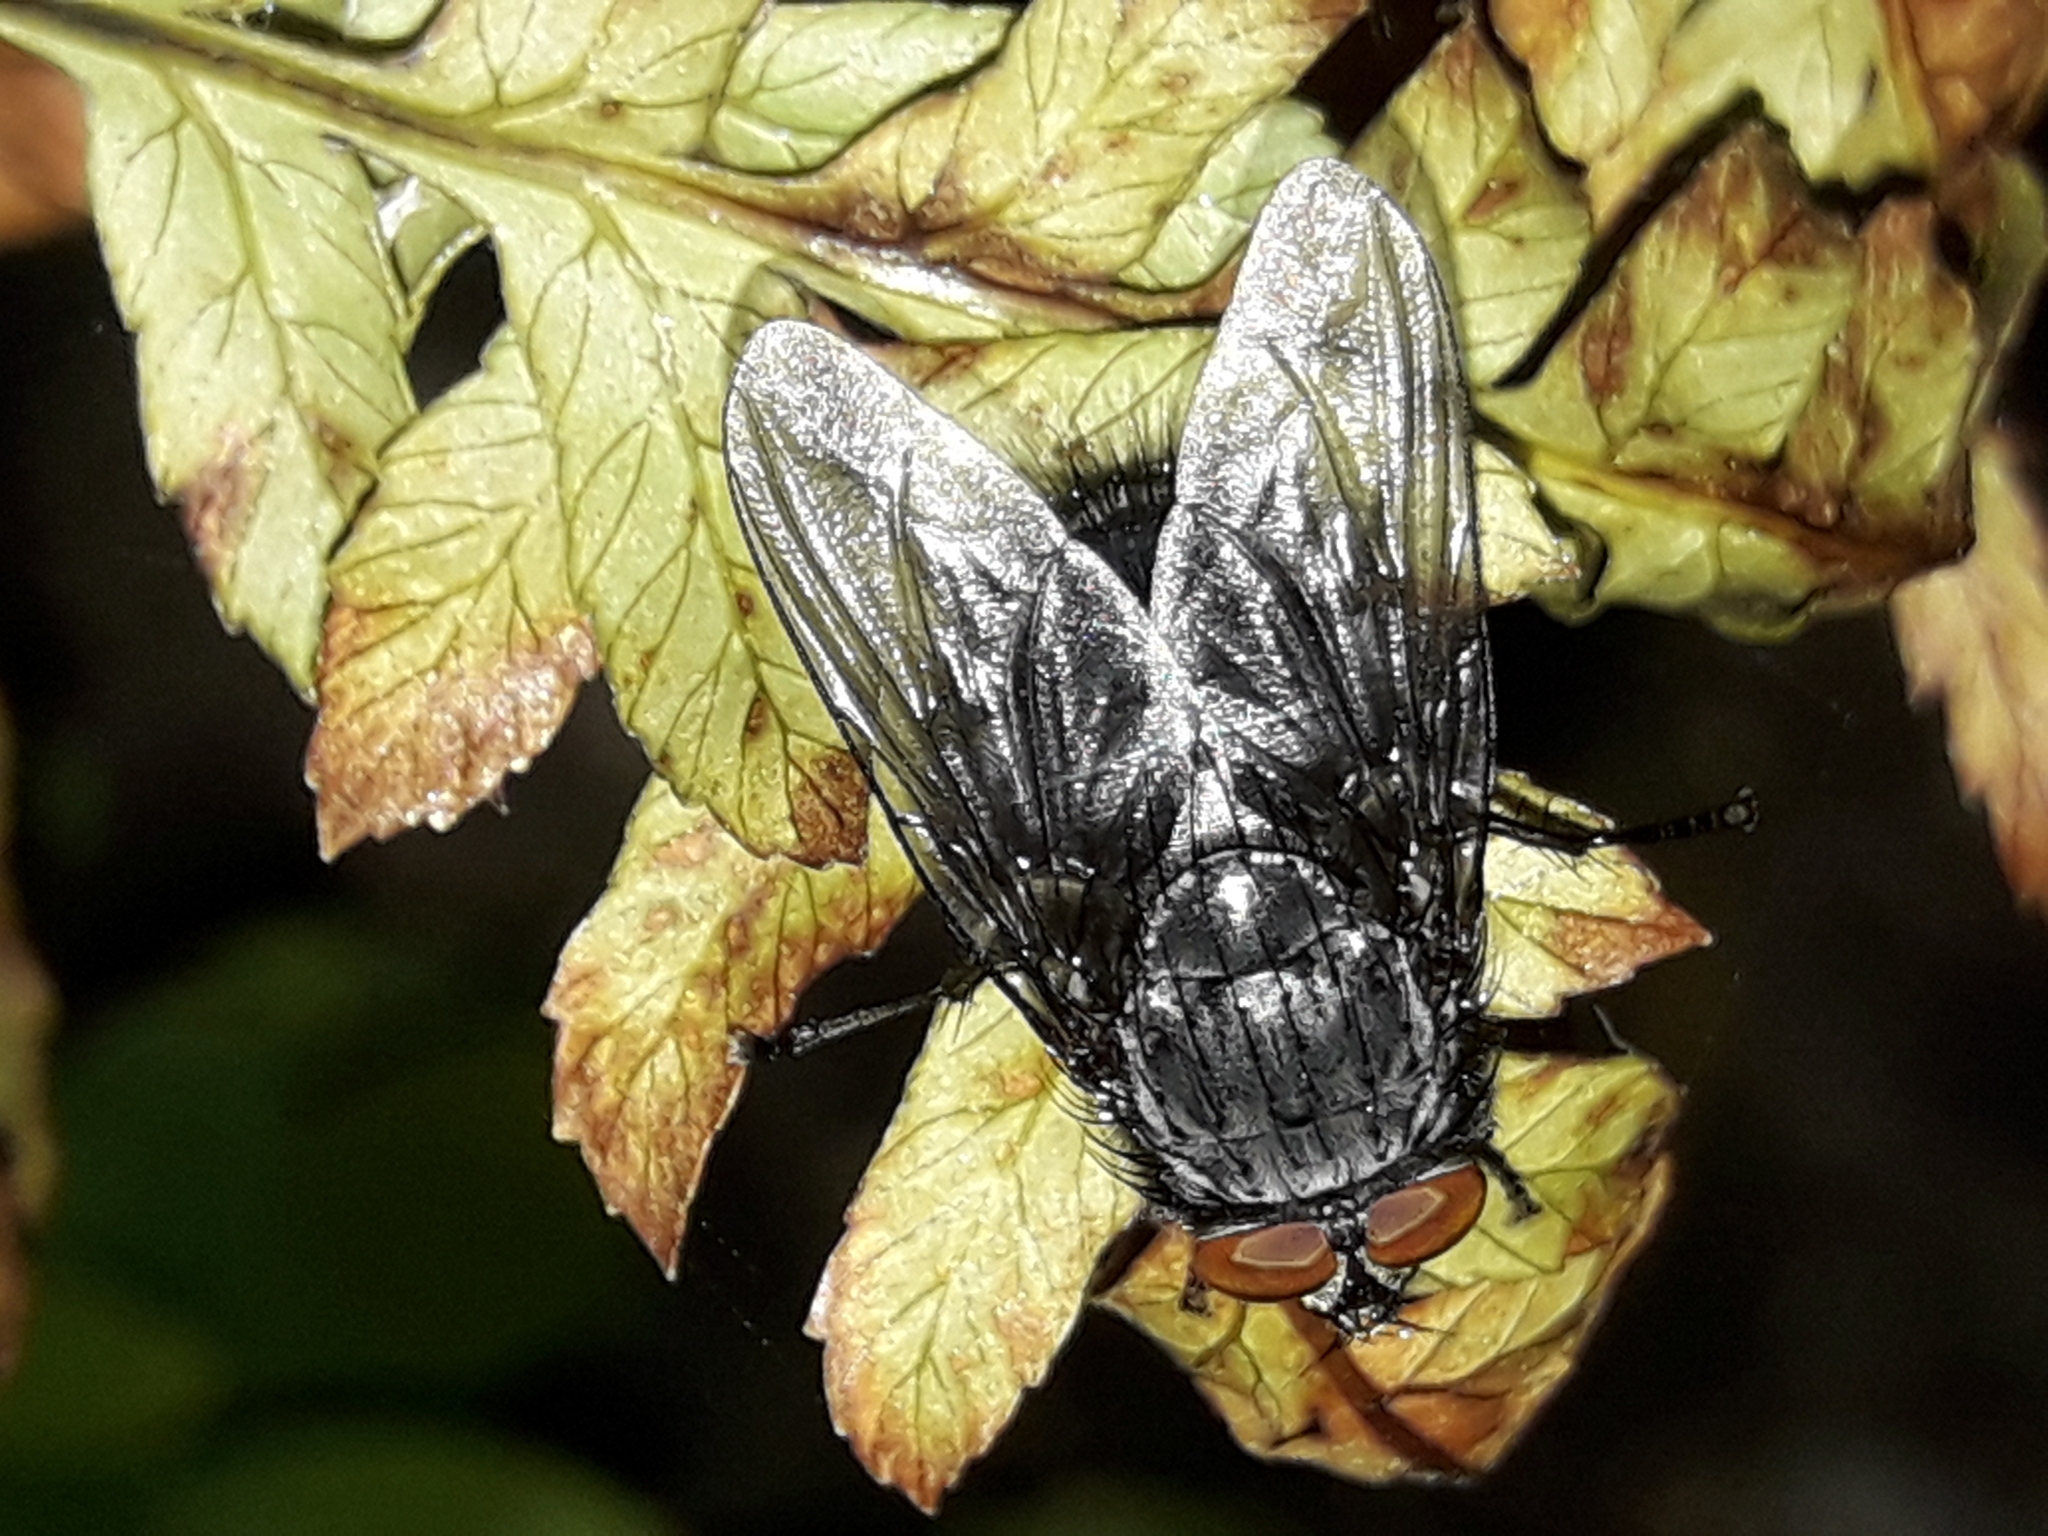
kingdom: Animalia
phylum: Arthropoda
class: Insecta
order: Diptera
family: Calliphoridae
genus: Calliphora
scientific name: Calliphora vicina
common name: Common blow flie
